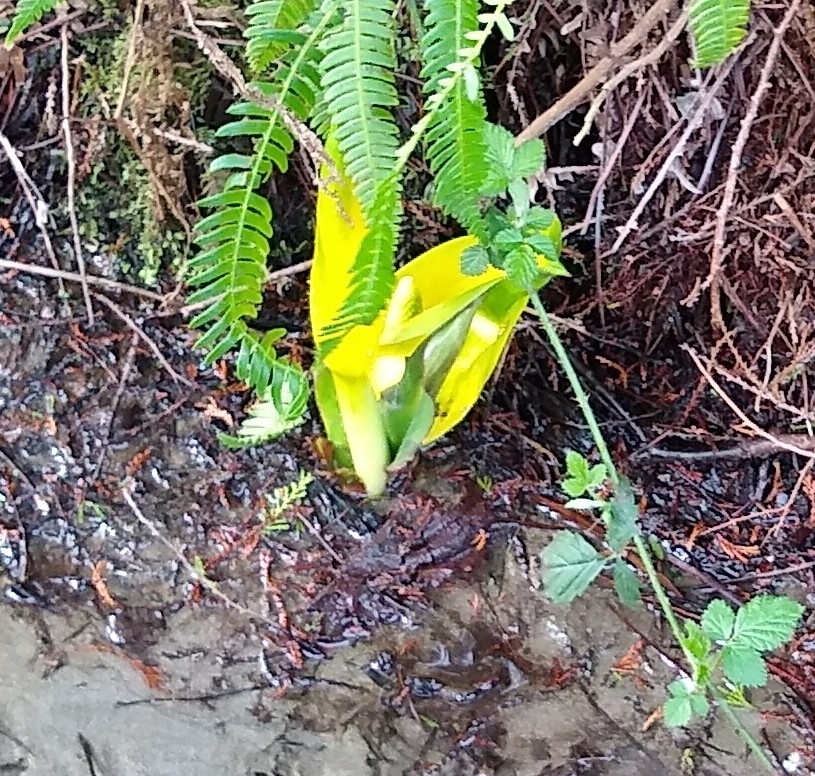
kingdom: Plantae
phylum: Tracheophyta
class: Liliopsida
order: Alismatales
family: Araceae
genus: Lysichiton
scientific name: Lysichiton americanus
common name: American skunk cabbage
